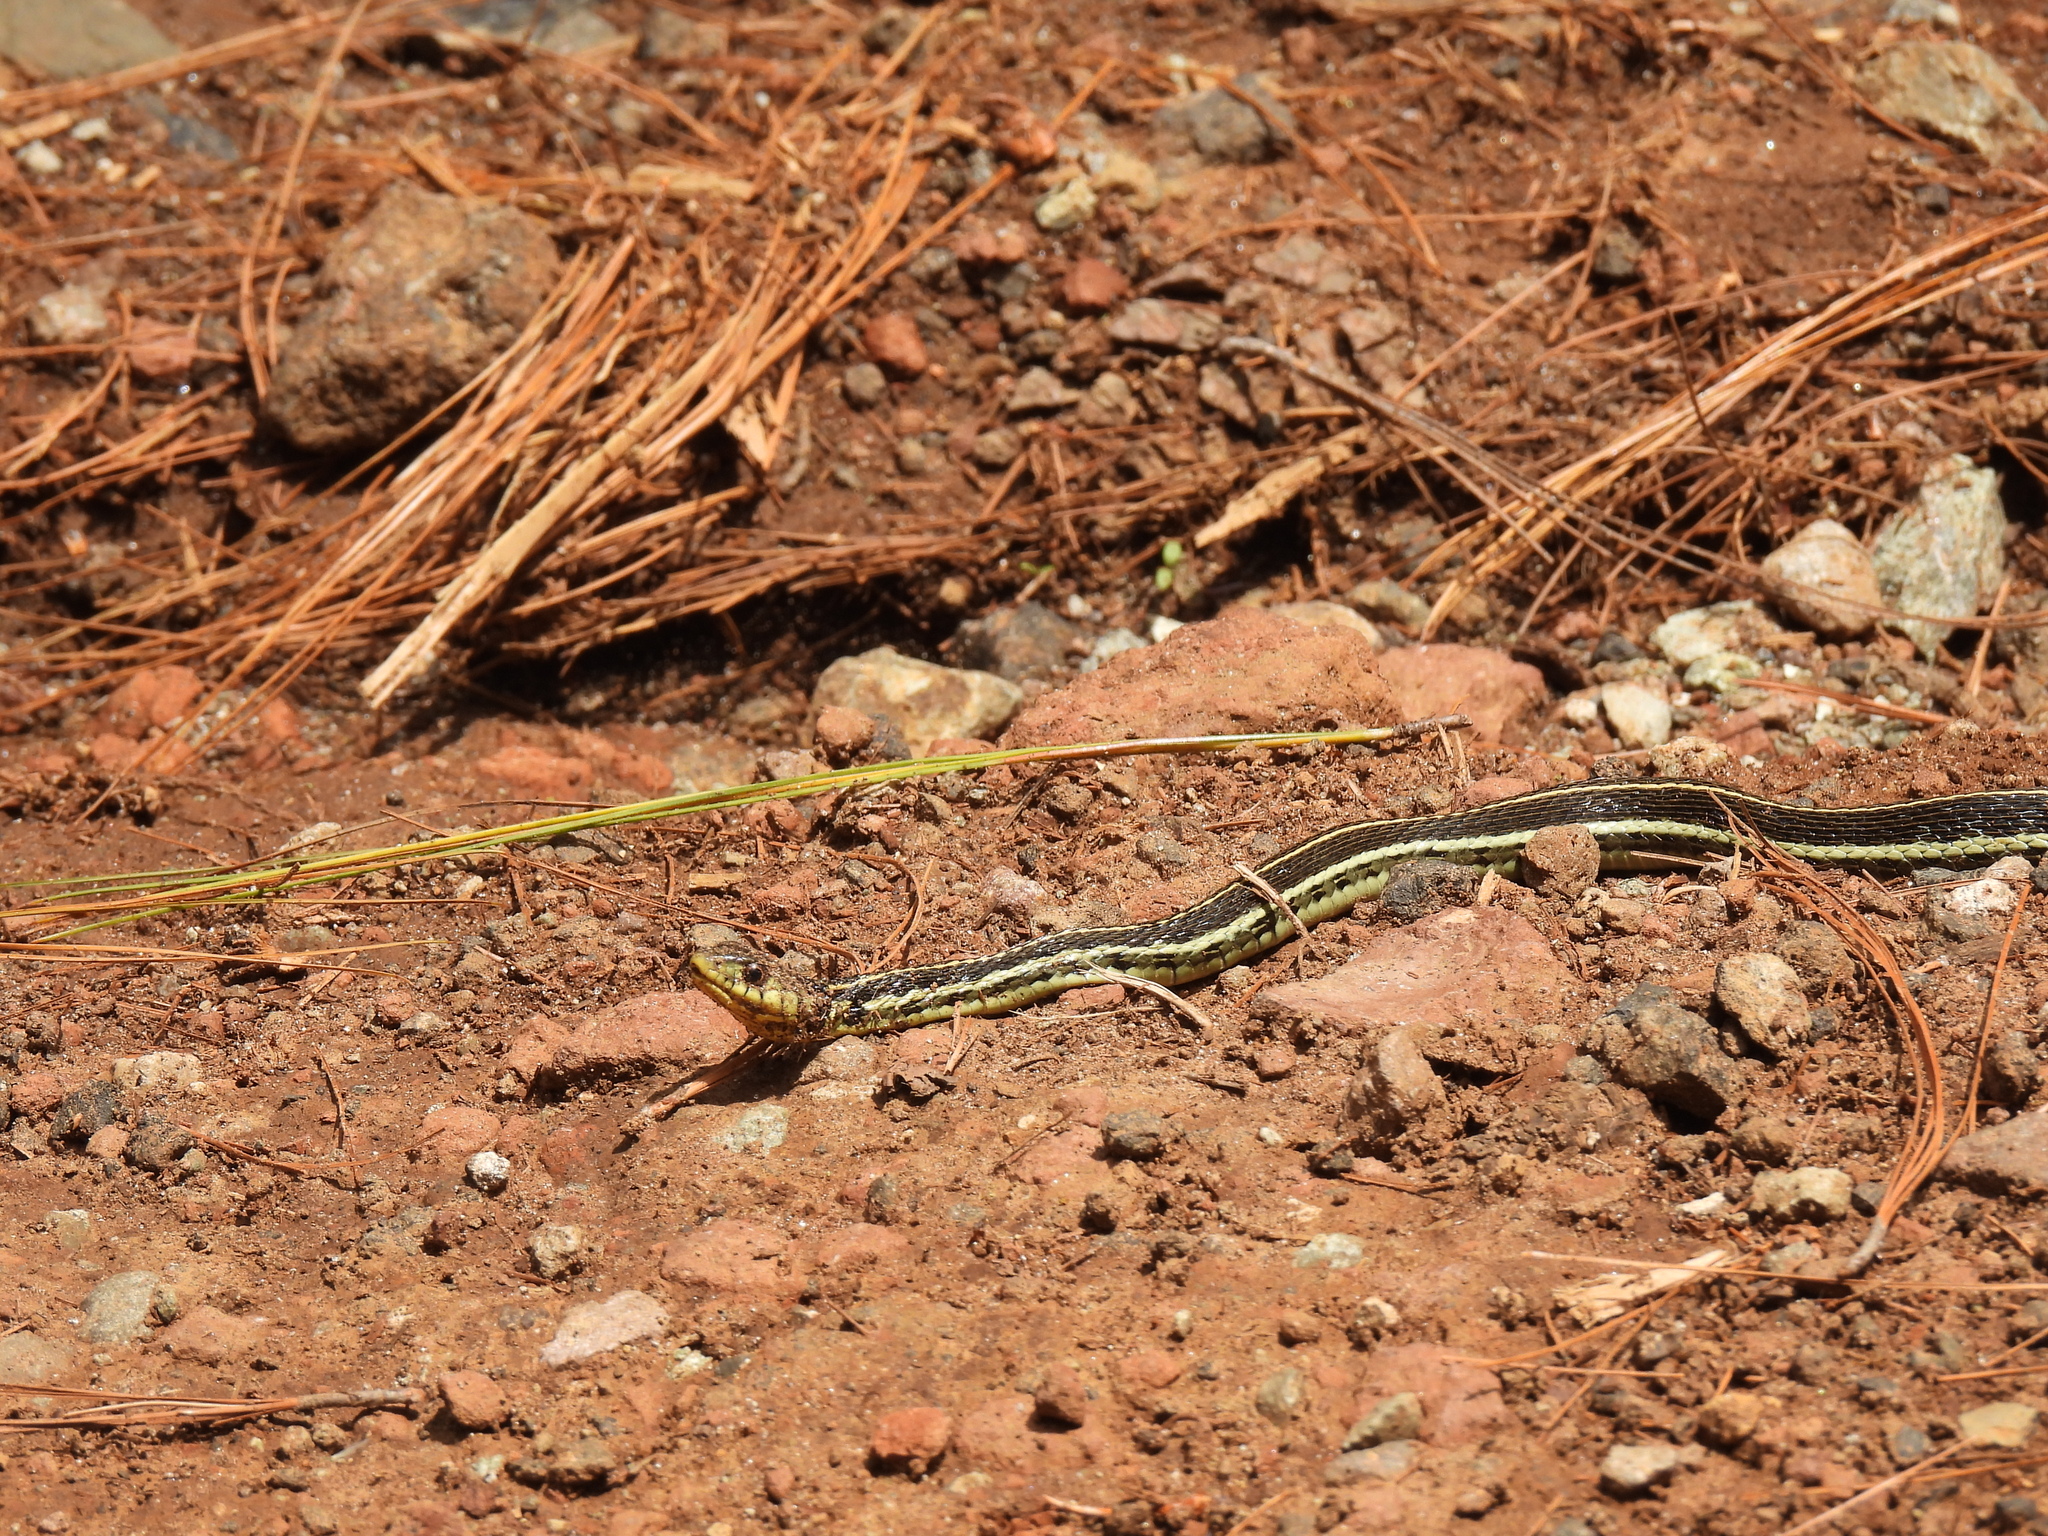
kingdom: Animalia
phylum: Chordata
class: Squamata
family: Colubridae
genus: Thamnophis
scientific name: Thamnophis pulchrilatus
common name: Yellow-throated gartersnake
